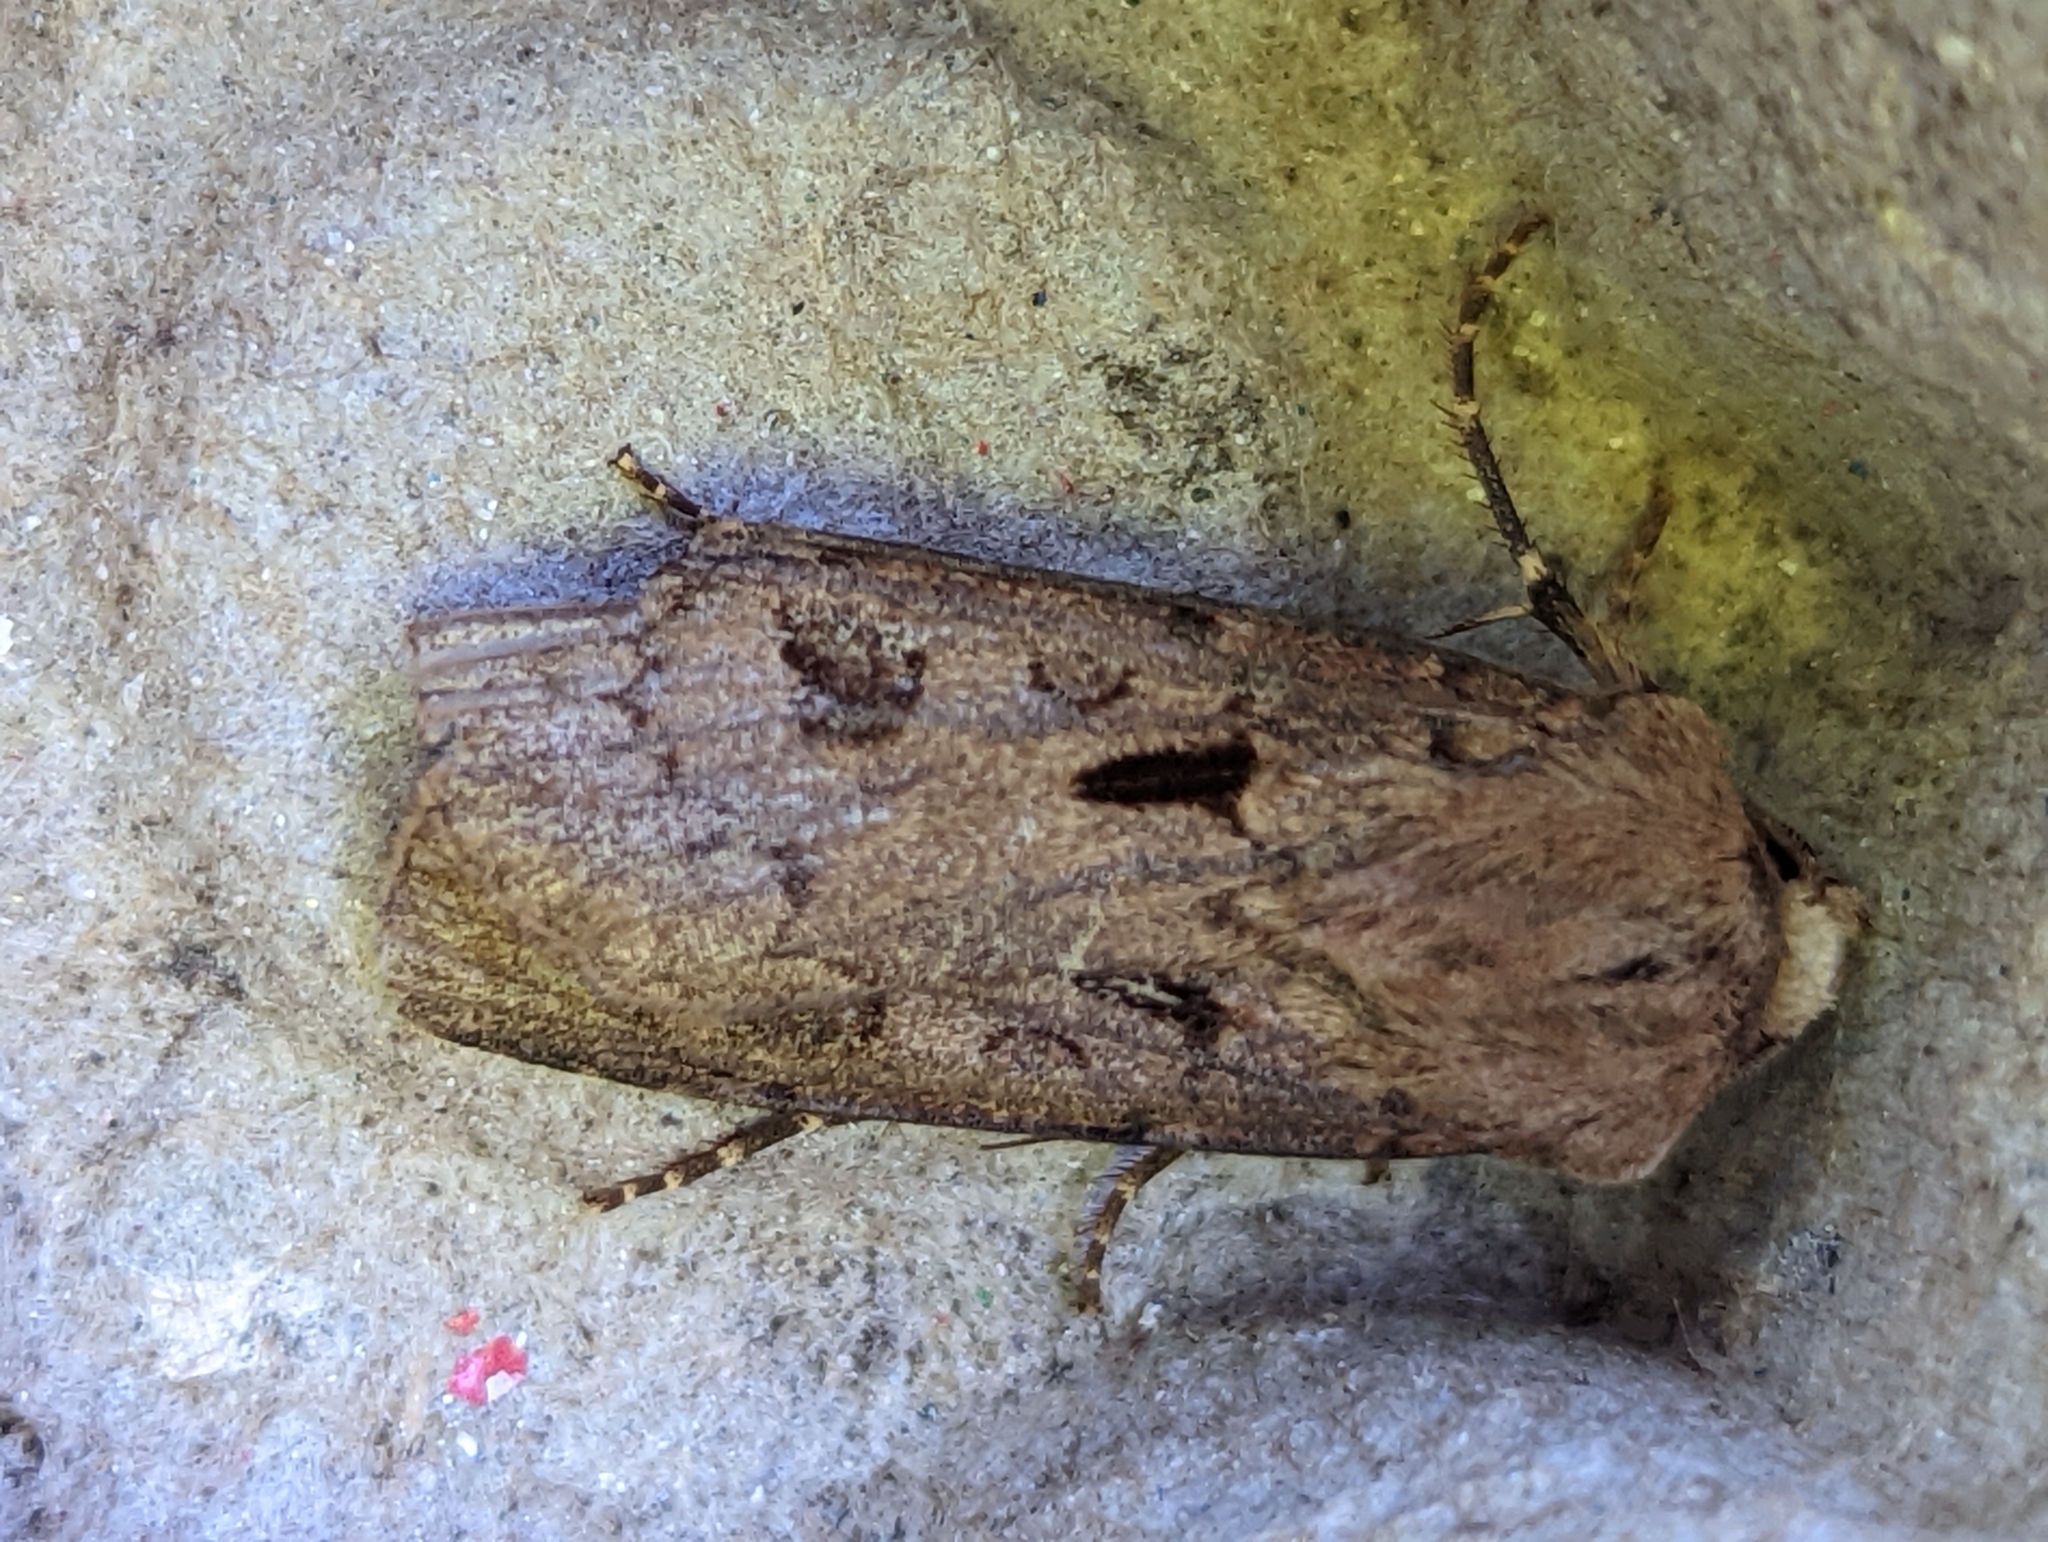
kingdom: Animalia
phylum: Arthropoda
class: Insecta
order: Lepidoptera
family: Noctuidae
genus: Agrotis
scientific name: Agrotis exclamationis
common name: Heart and dart
